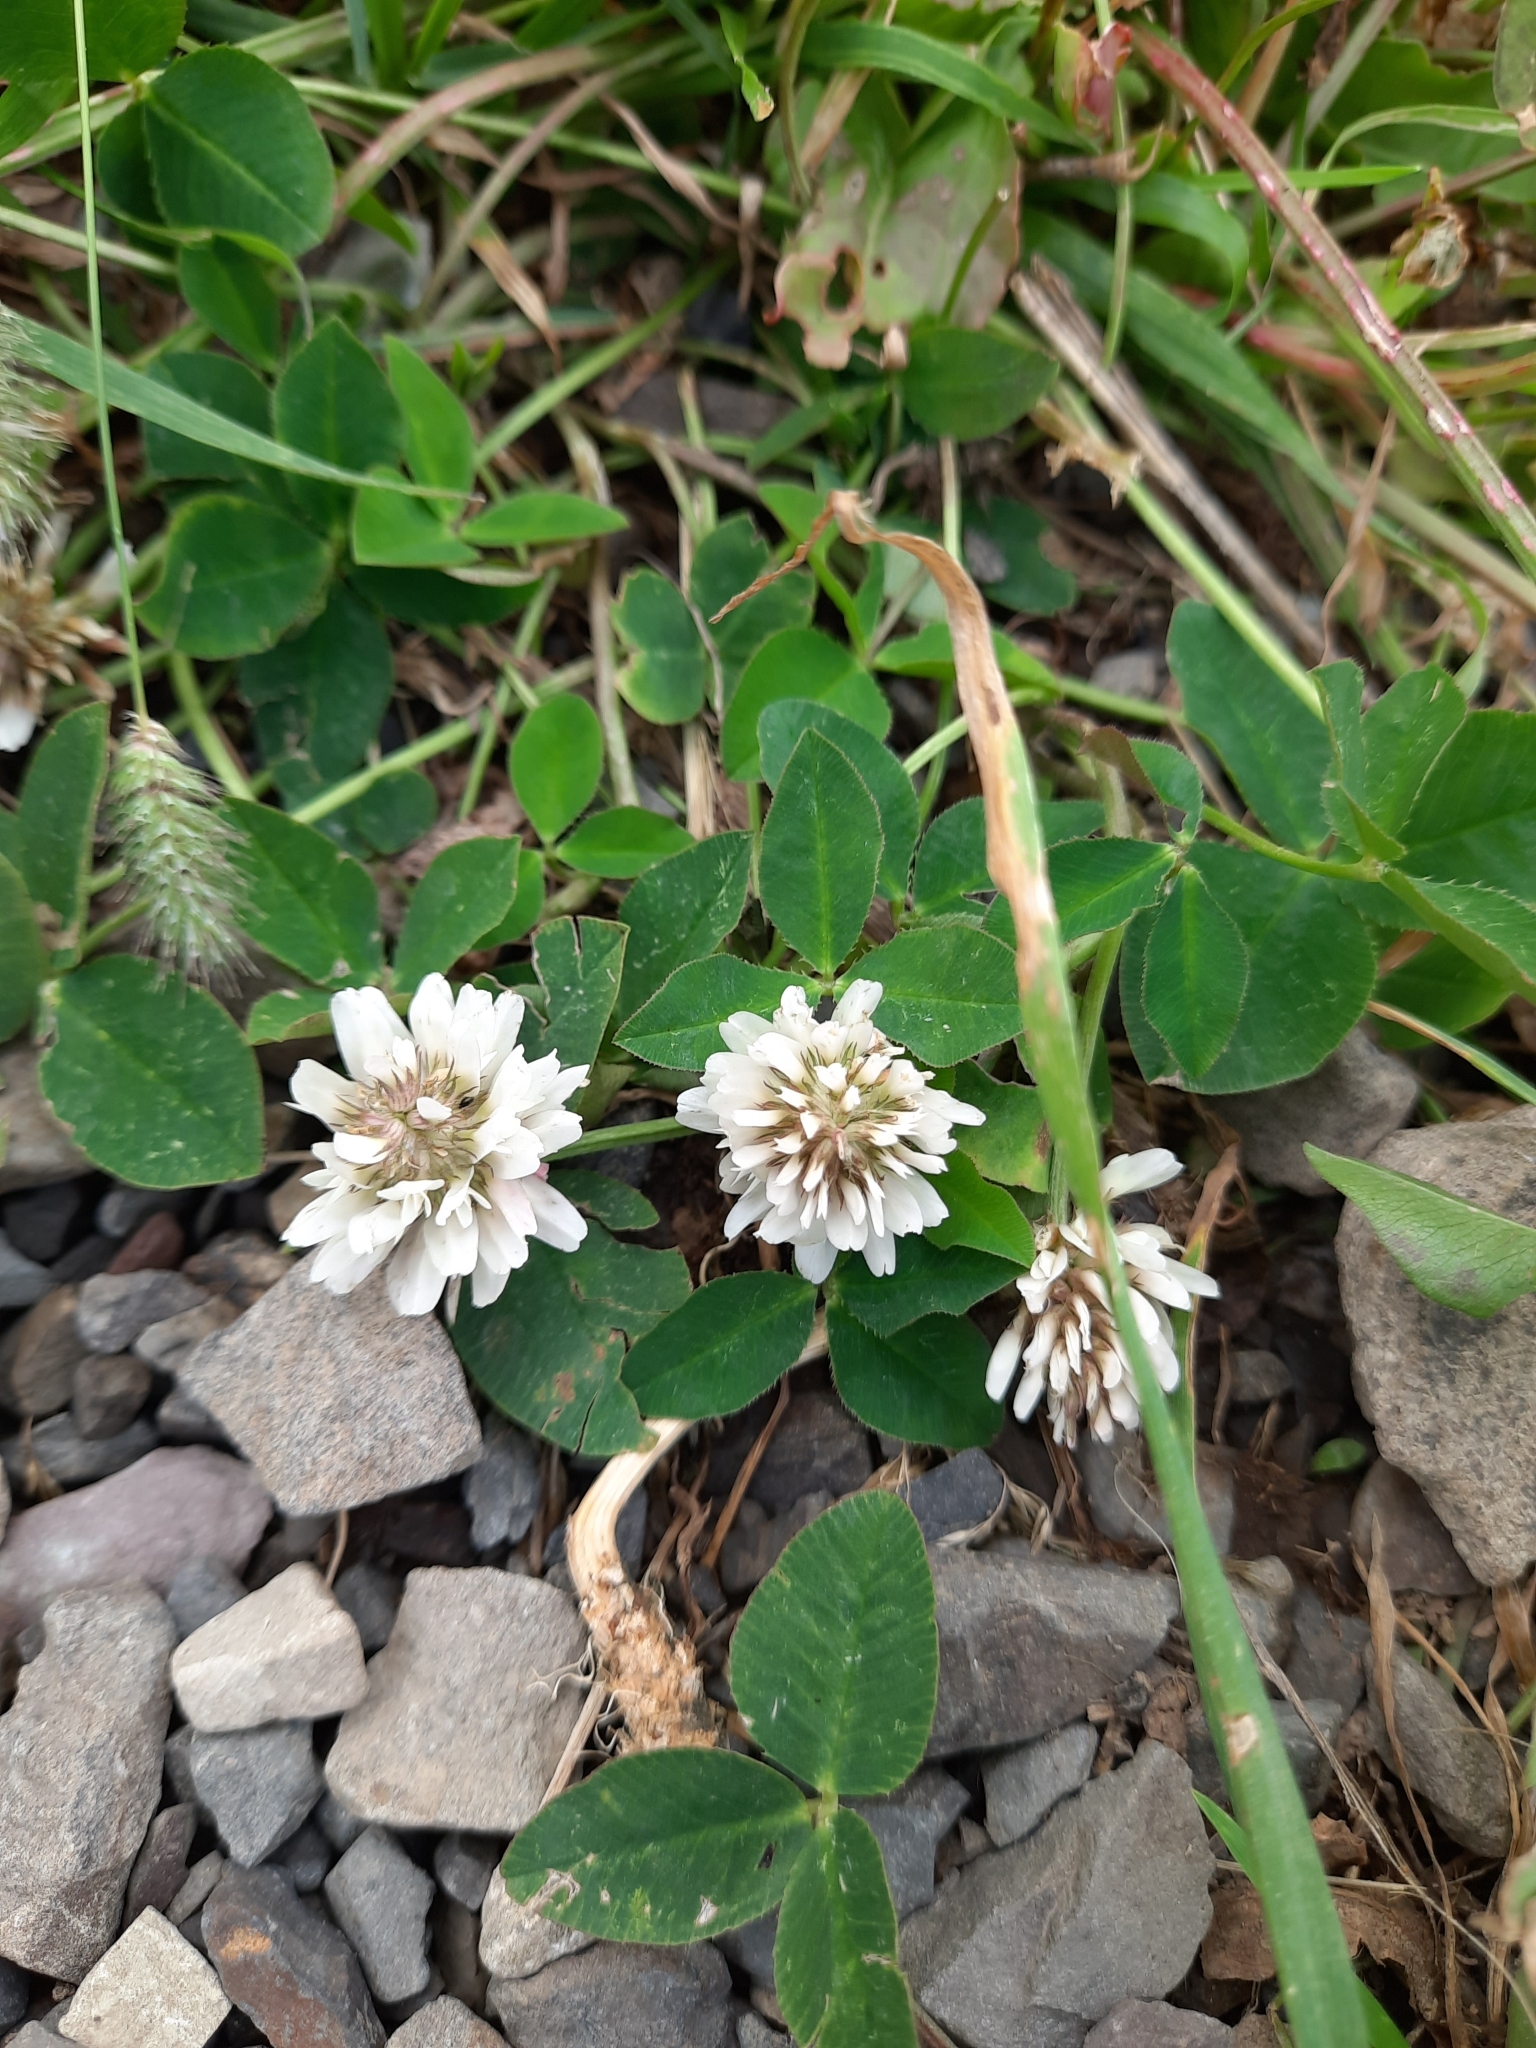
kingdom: Plantae
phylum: Tracheophyta
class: Magnoliopsida
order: Fabales
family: Fabaceae
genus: Trifolium
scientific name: Trifolium repens
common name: White clover
